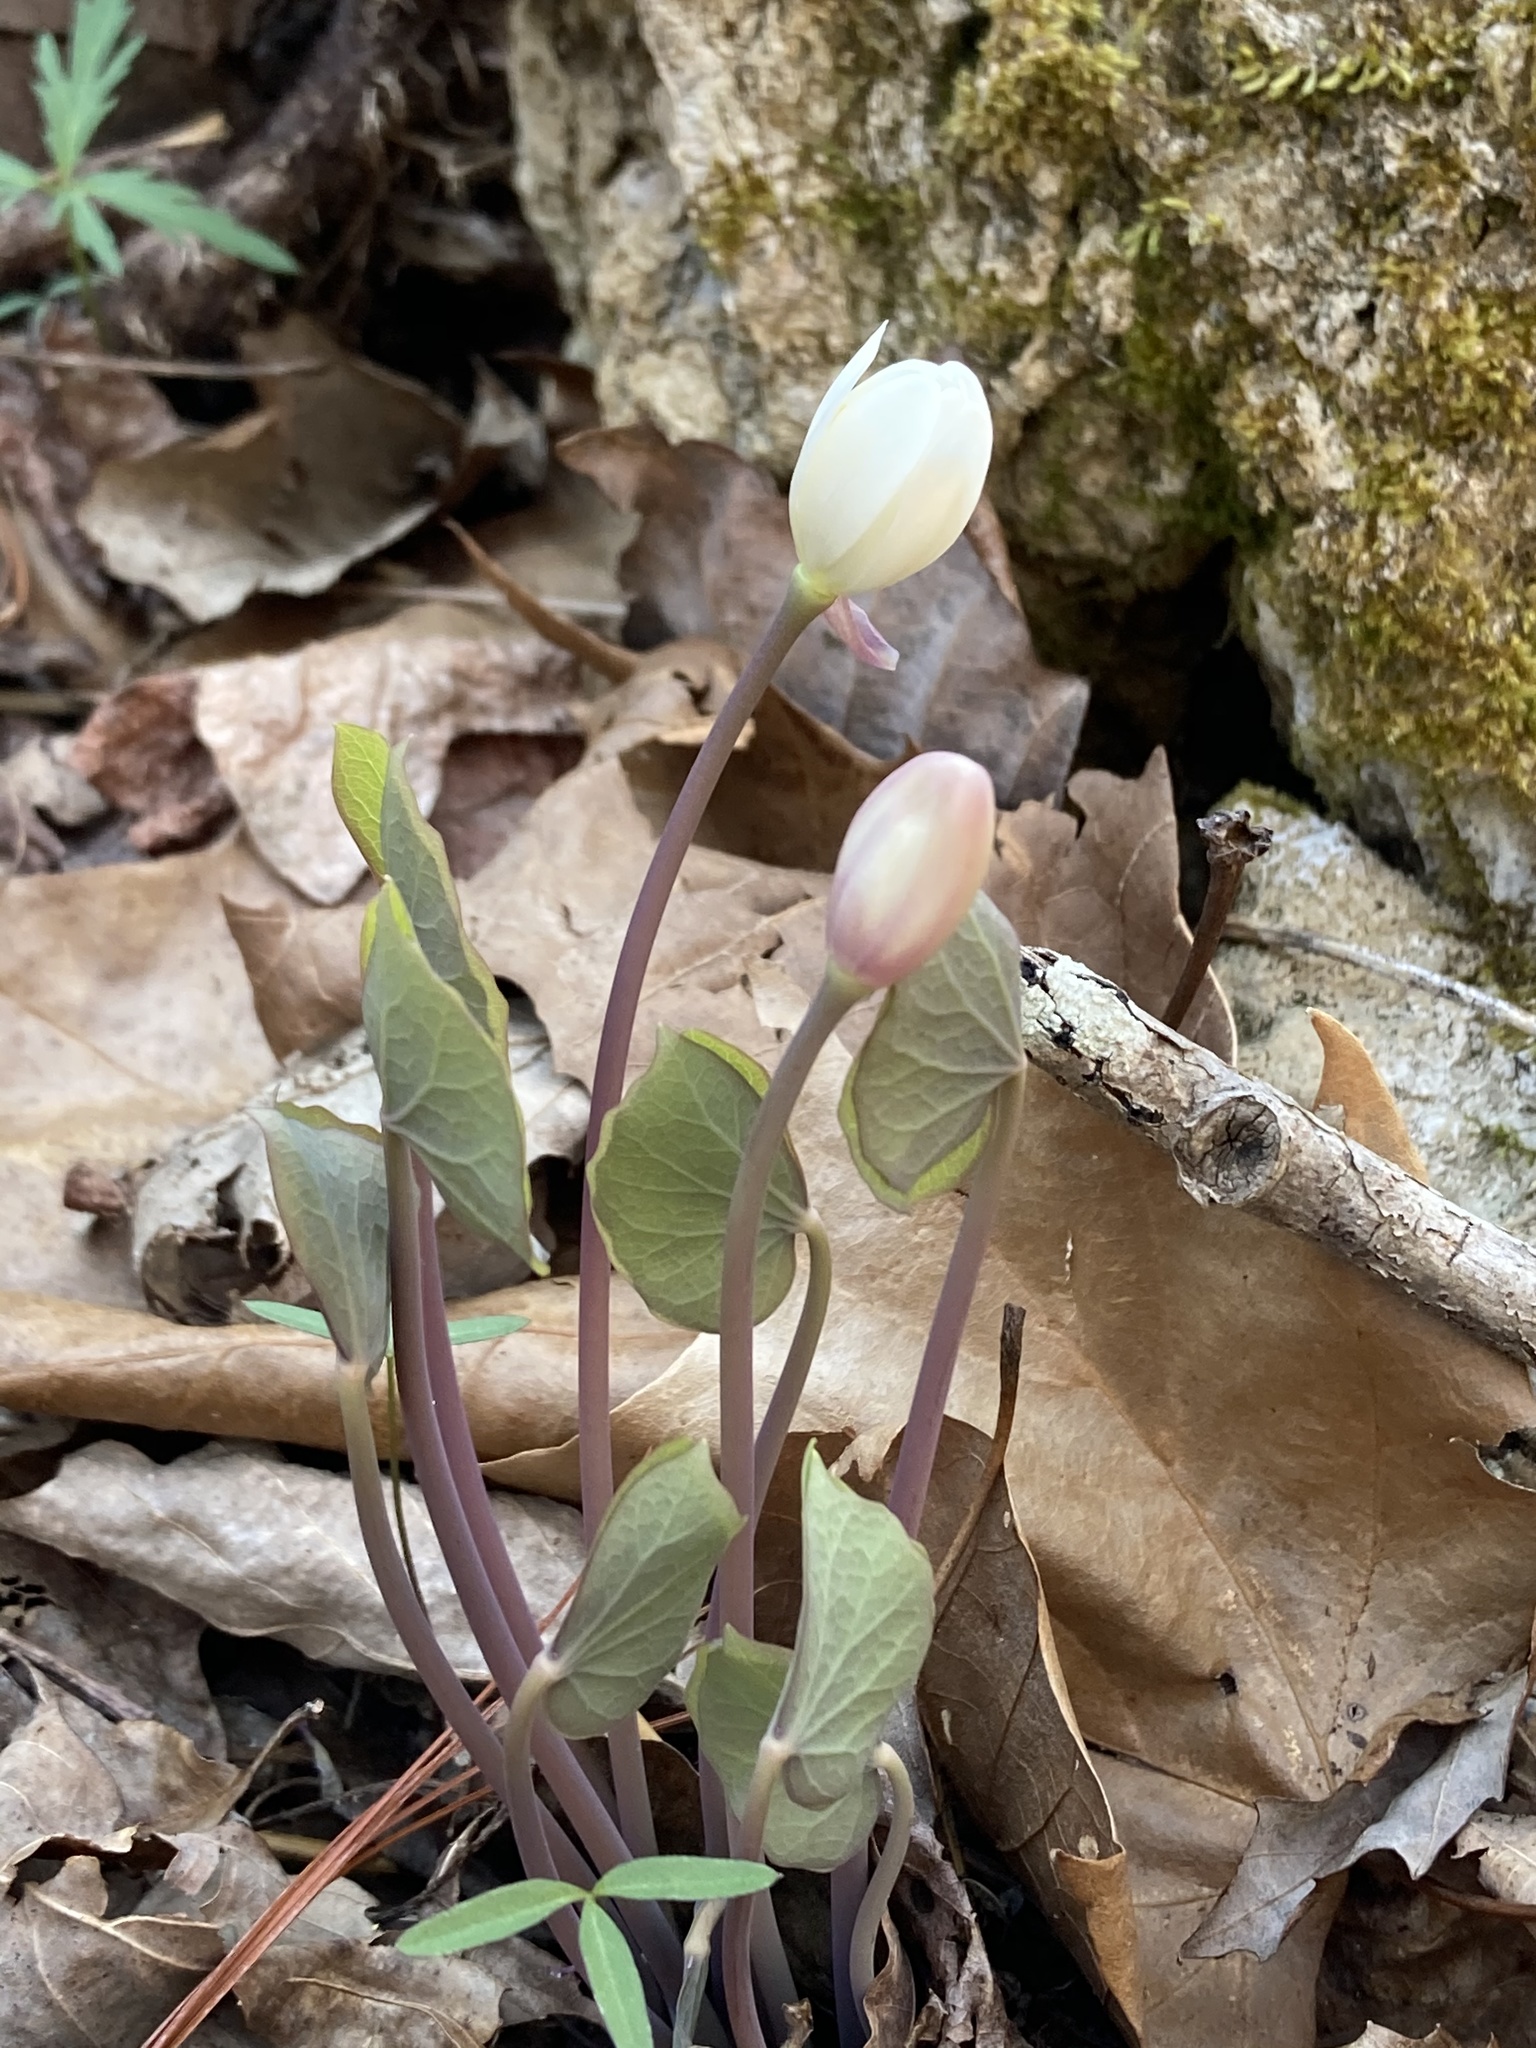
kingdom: Plantae
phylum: Tracheophyta
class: Magnoliopsida
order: Ranunculales
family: Berberidaceae
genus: Jeffersonia
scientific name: Jeffersonia diphylla
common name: Rheumatism-root
